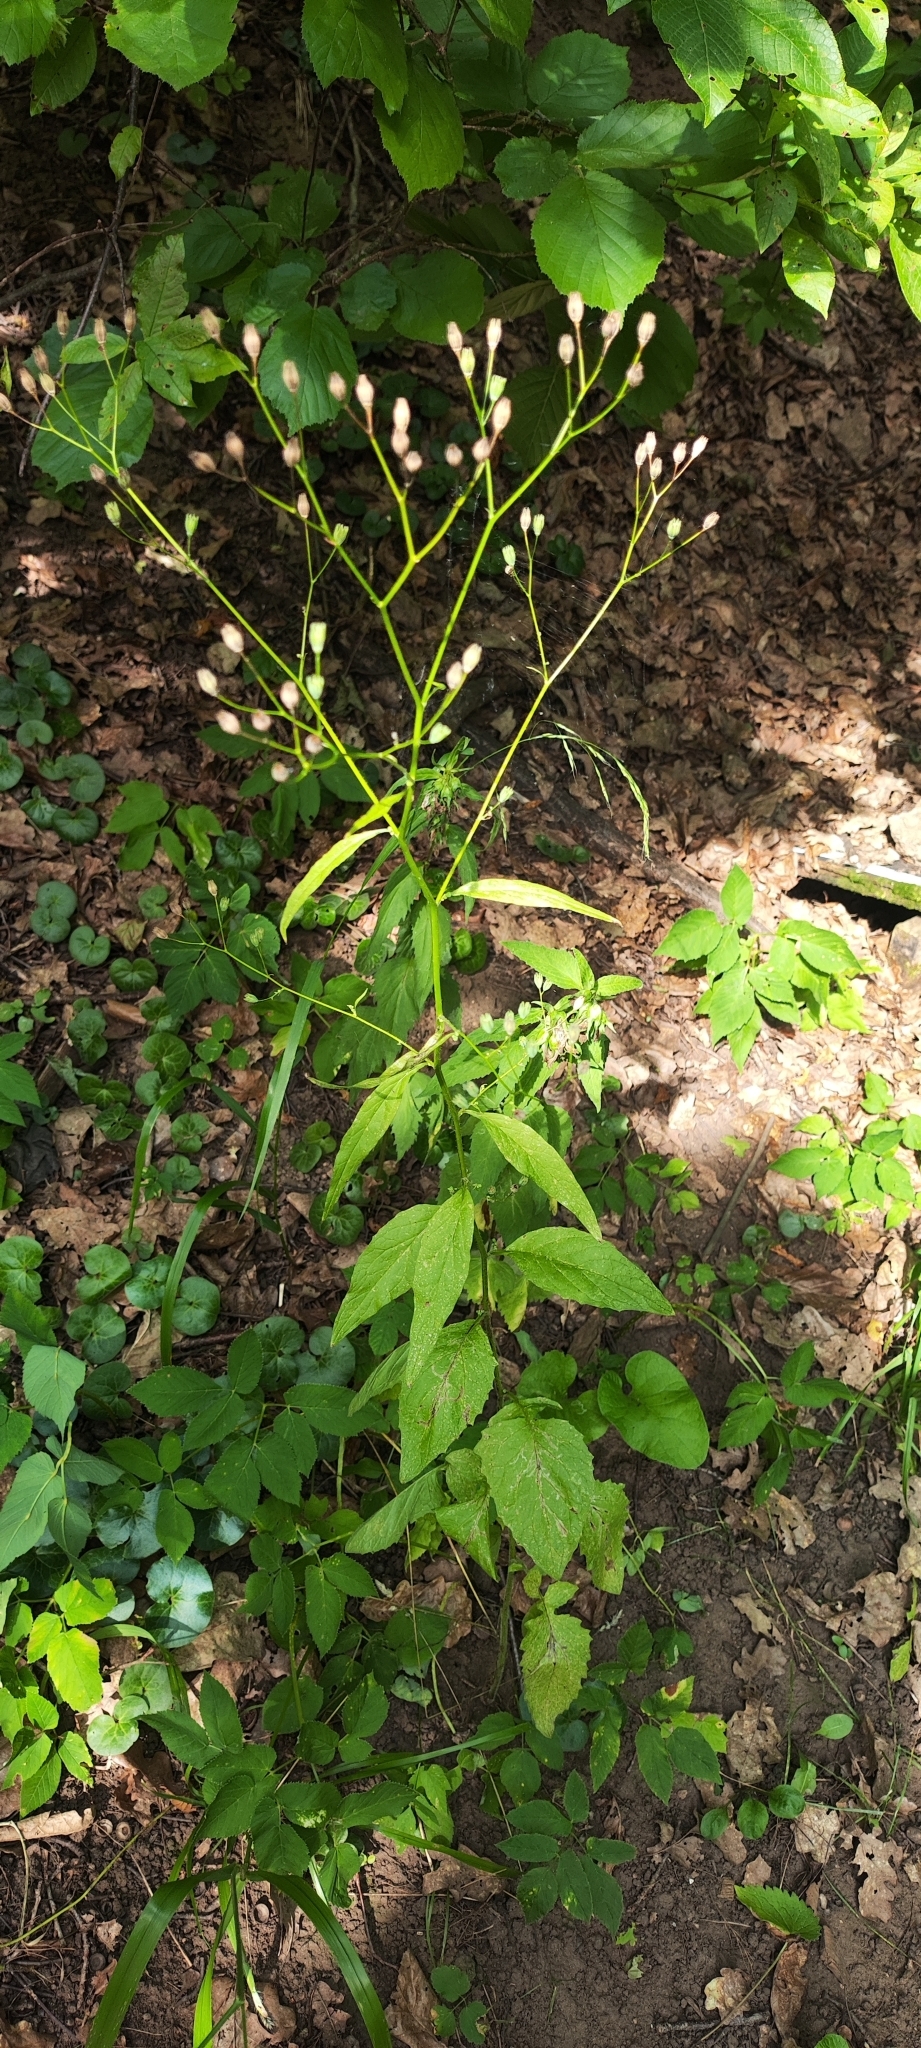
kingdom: Plantae
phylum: Tracheophyta
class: Magnoliopsida
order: Lamiales
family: Scrophulariaceae
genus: Scrophularia
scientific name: Scrophularia nodosa
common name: Common figwort
